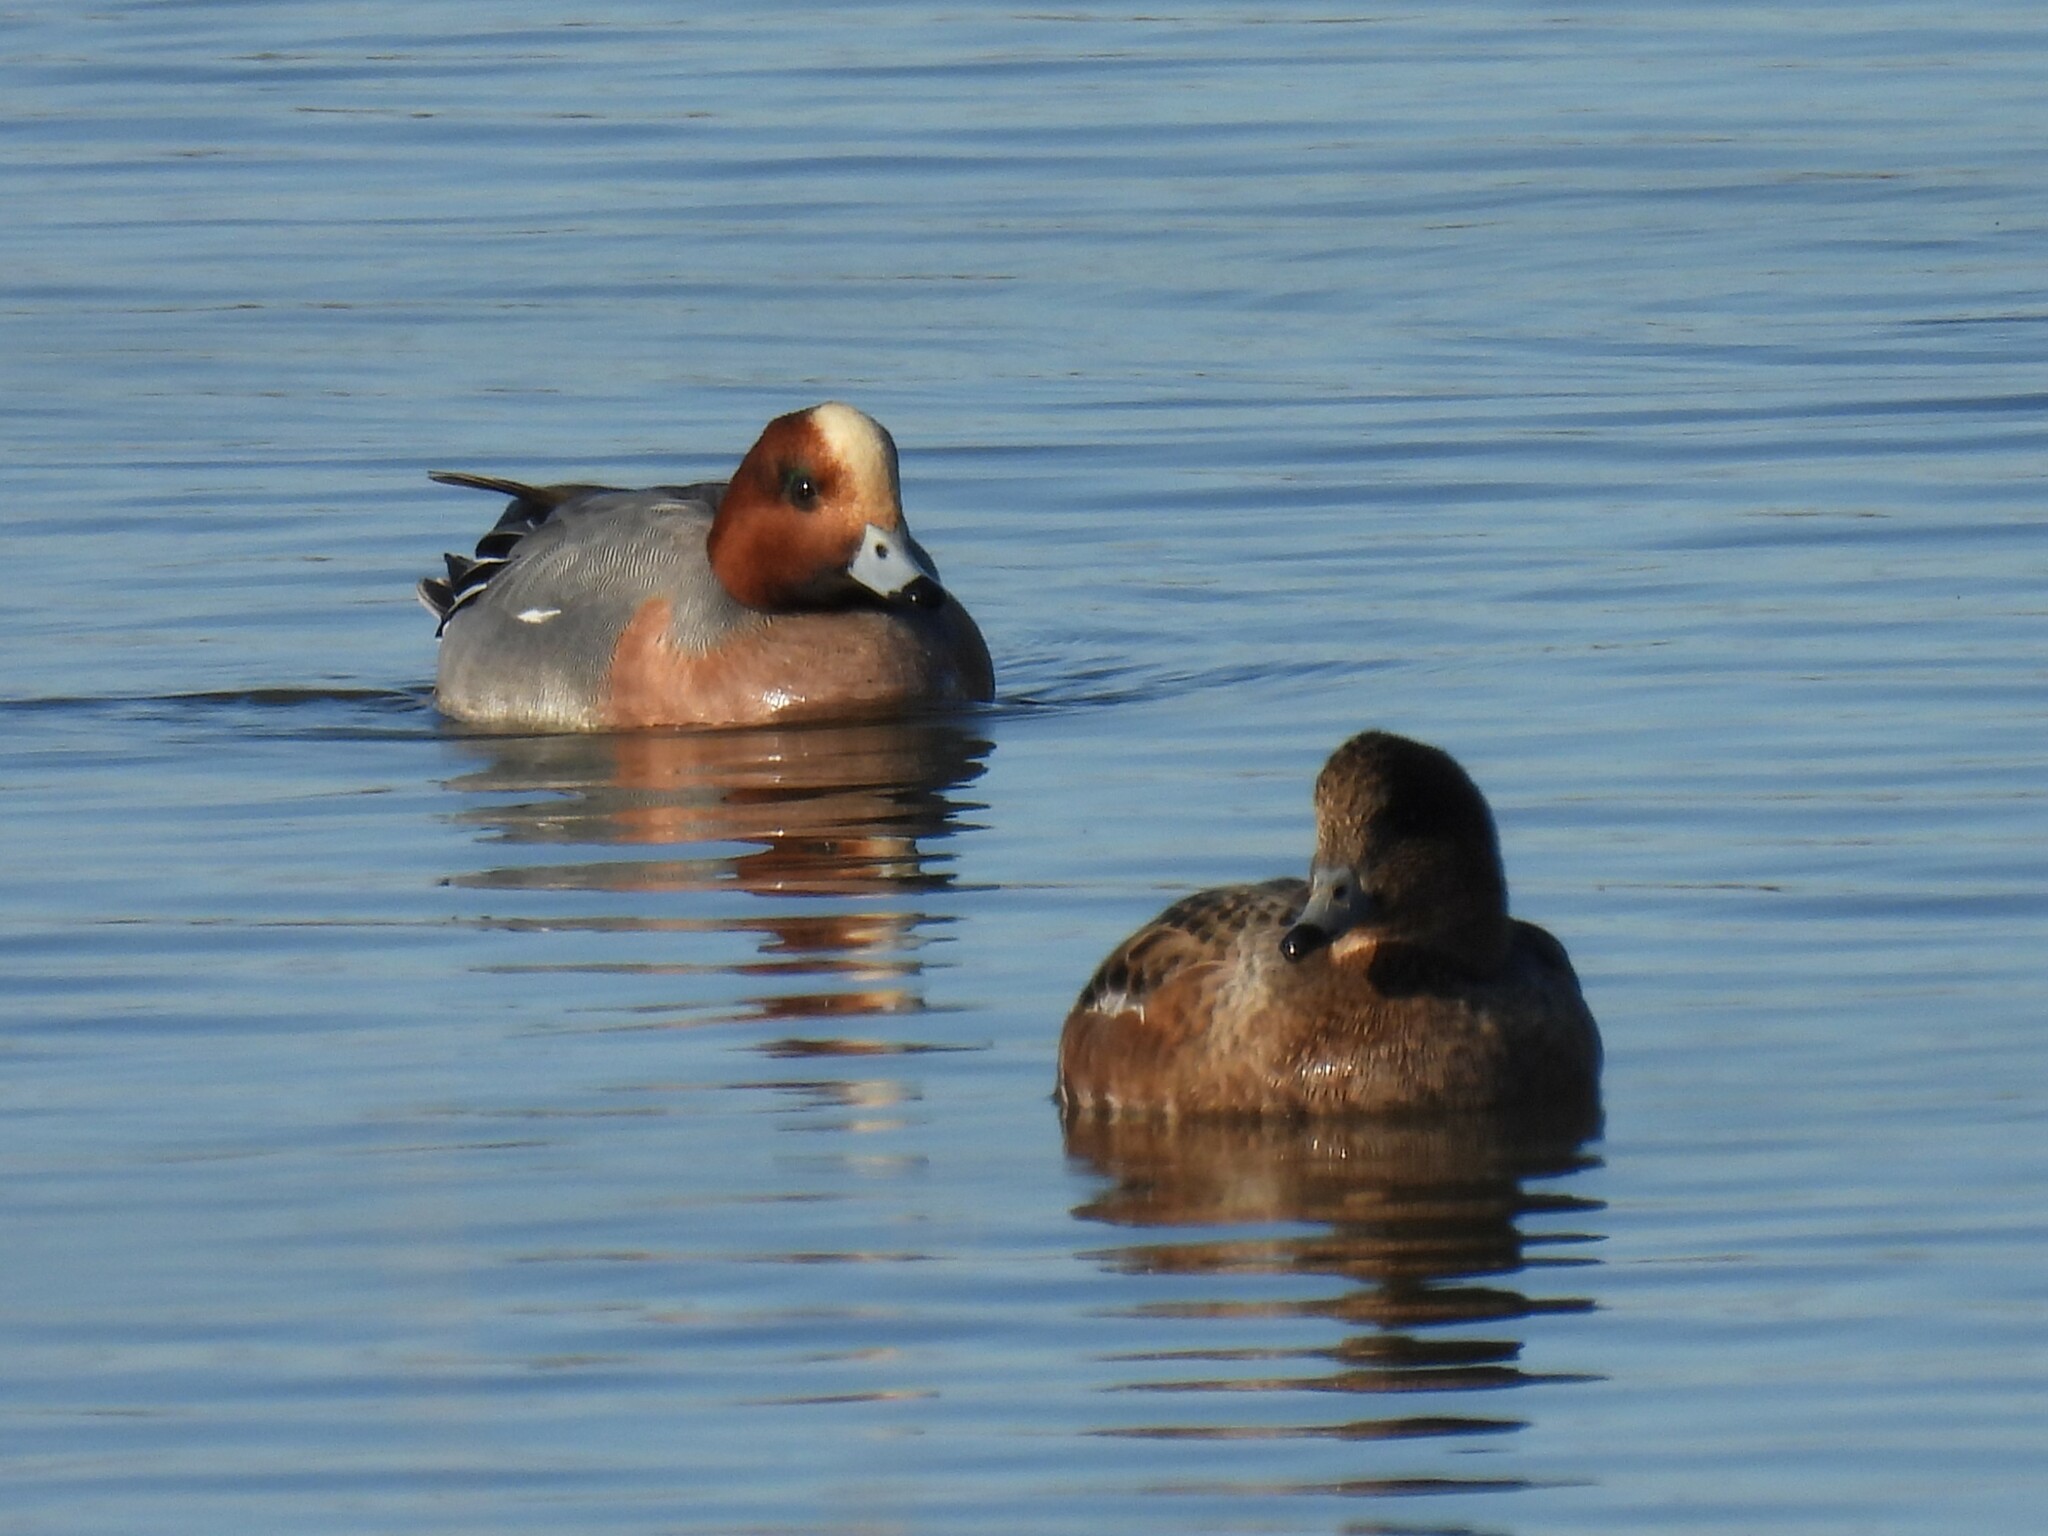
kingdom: Animalia
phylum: Chordata
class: Aves
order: Anseriformes
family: Anatidae
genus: Mareca
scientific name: Mareca penelope
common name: Eurasian wigeon
